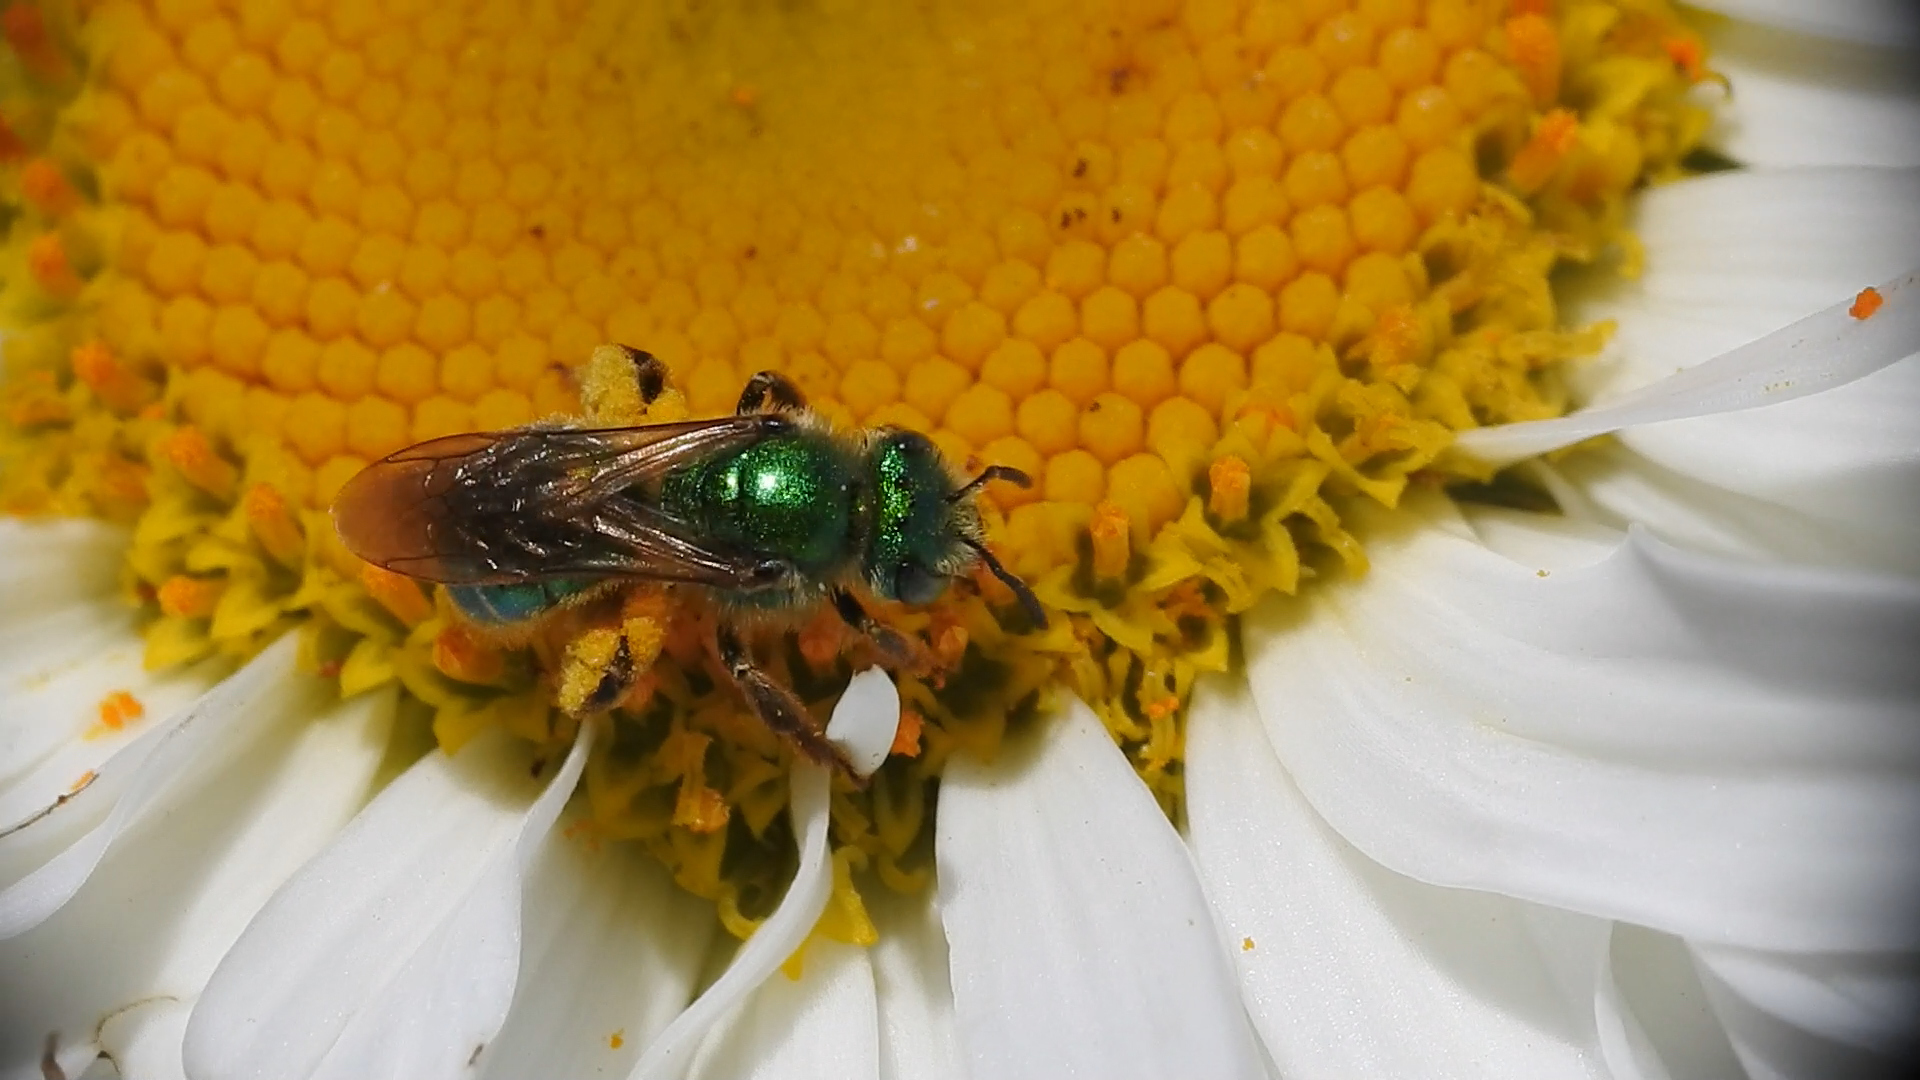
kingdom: Animalia
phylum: Arthropoda
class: Insecta
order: Hymenoptera
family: Halictidae
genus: Agapostemon
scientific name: Agapostemon texanus
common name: Texas striped sweat bee
